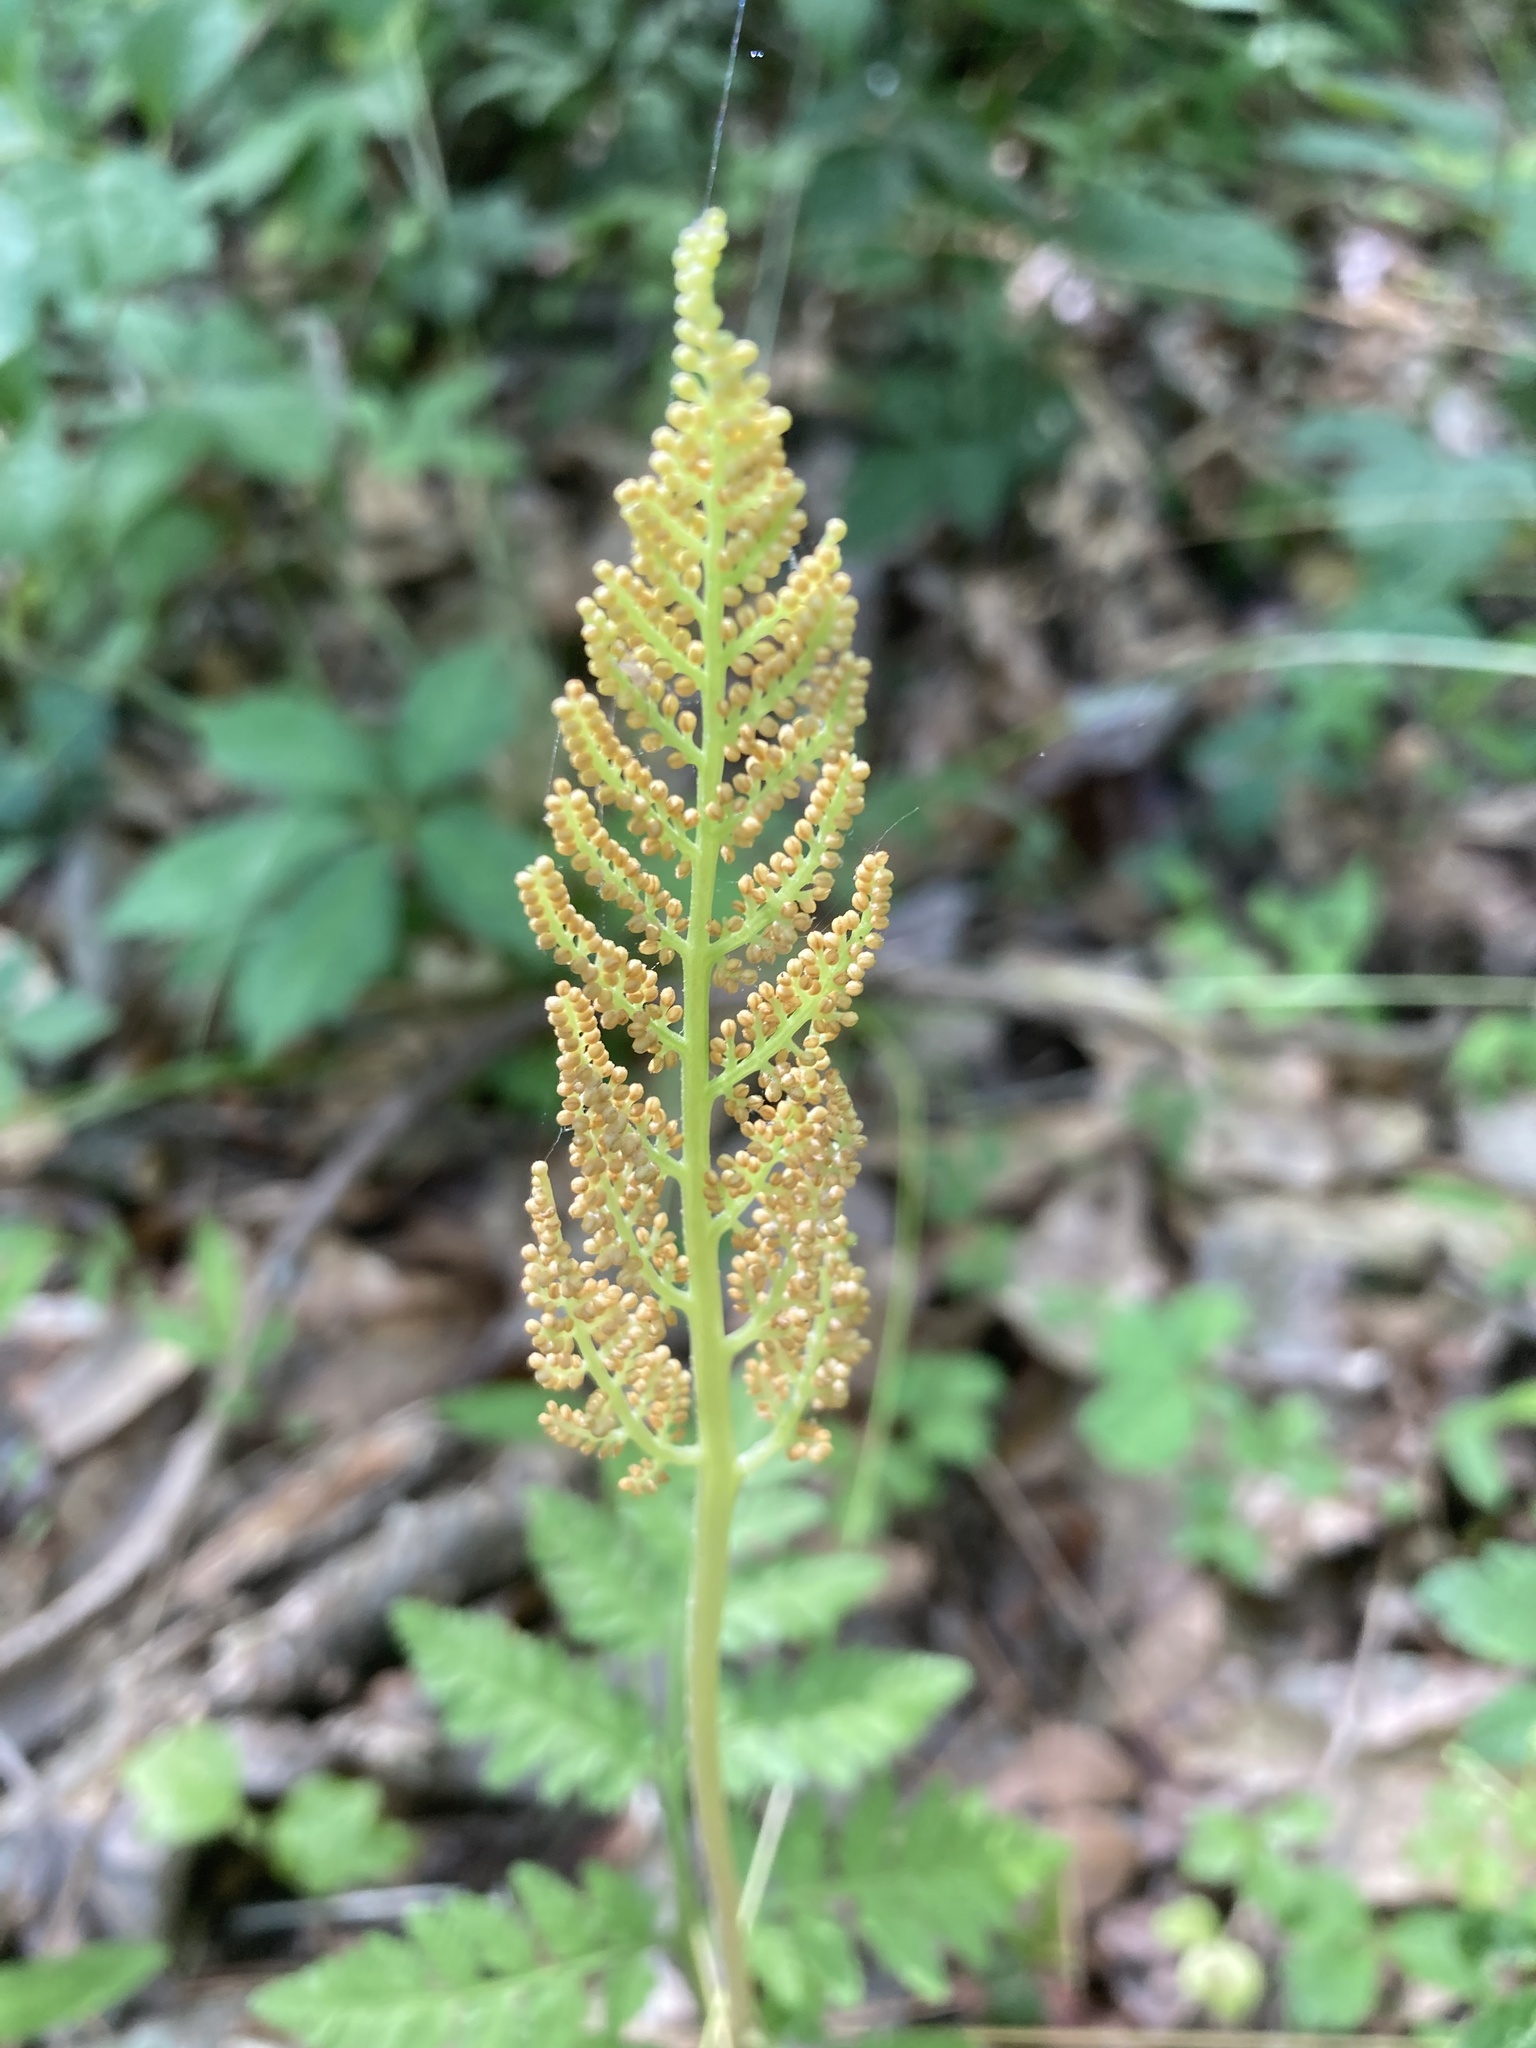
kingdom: Plantae
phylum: Tracheophyta
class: Polypodiopsida
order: Ophioglossales
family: Ophioglossaceae
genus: Botrypus
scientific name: Botrypus virginianus
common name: Common grapefern
